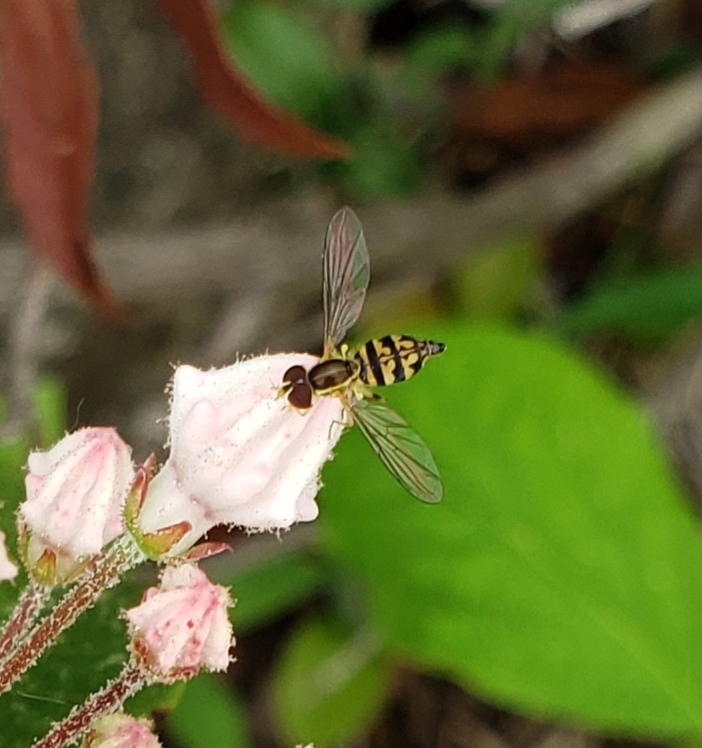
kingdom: Animalia
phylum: Arthropoda
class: Insecta
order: Diptera
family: Syrphidae
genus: Toxomerus
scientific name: Toxomerus geminatus
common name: Eastern calligrapher
